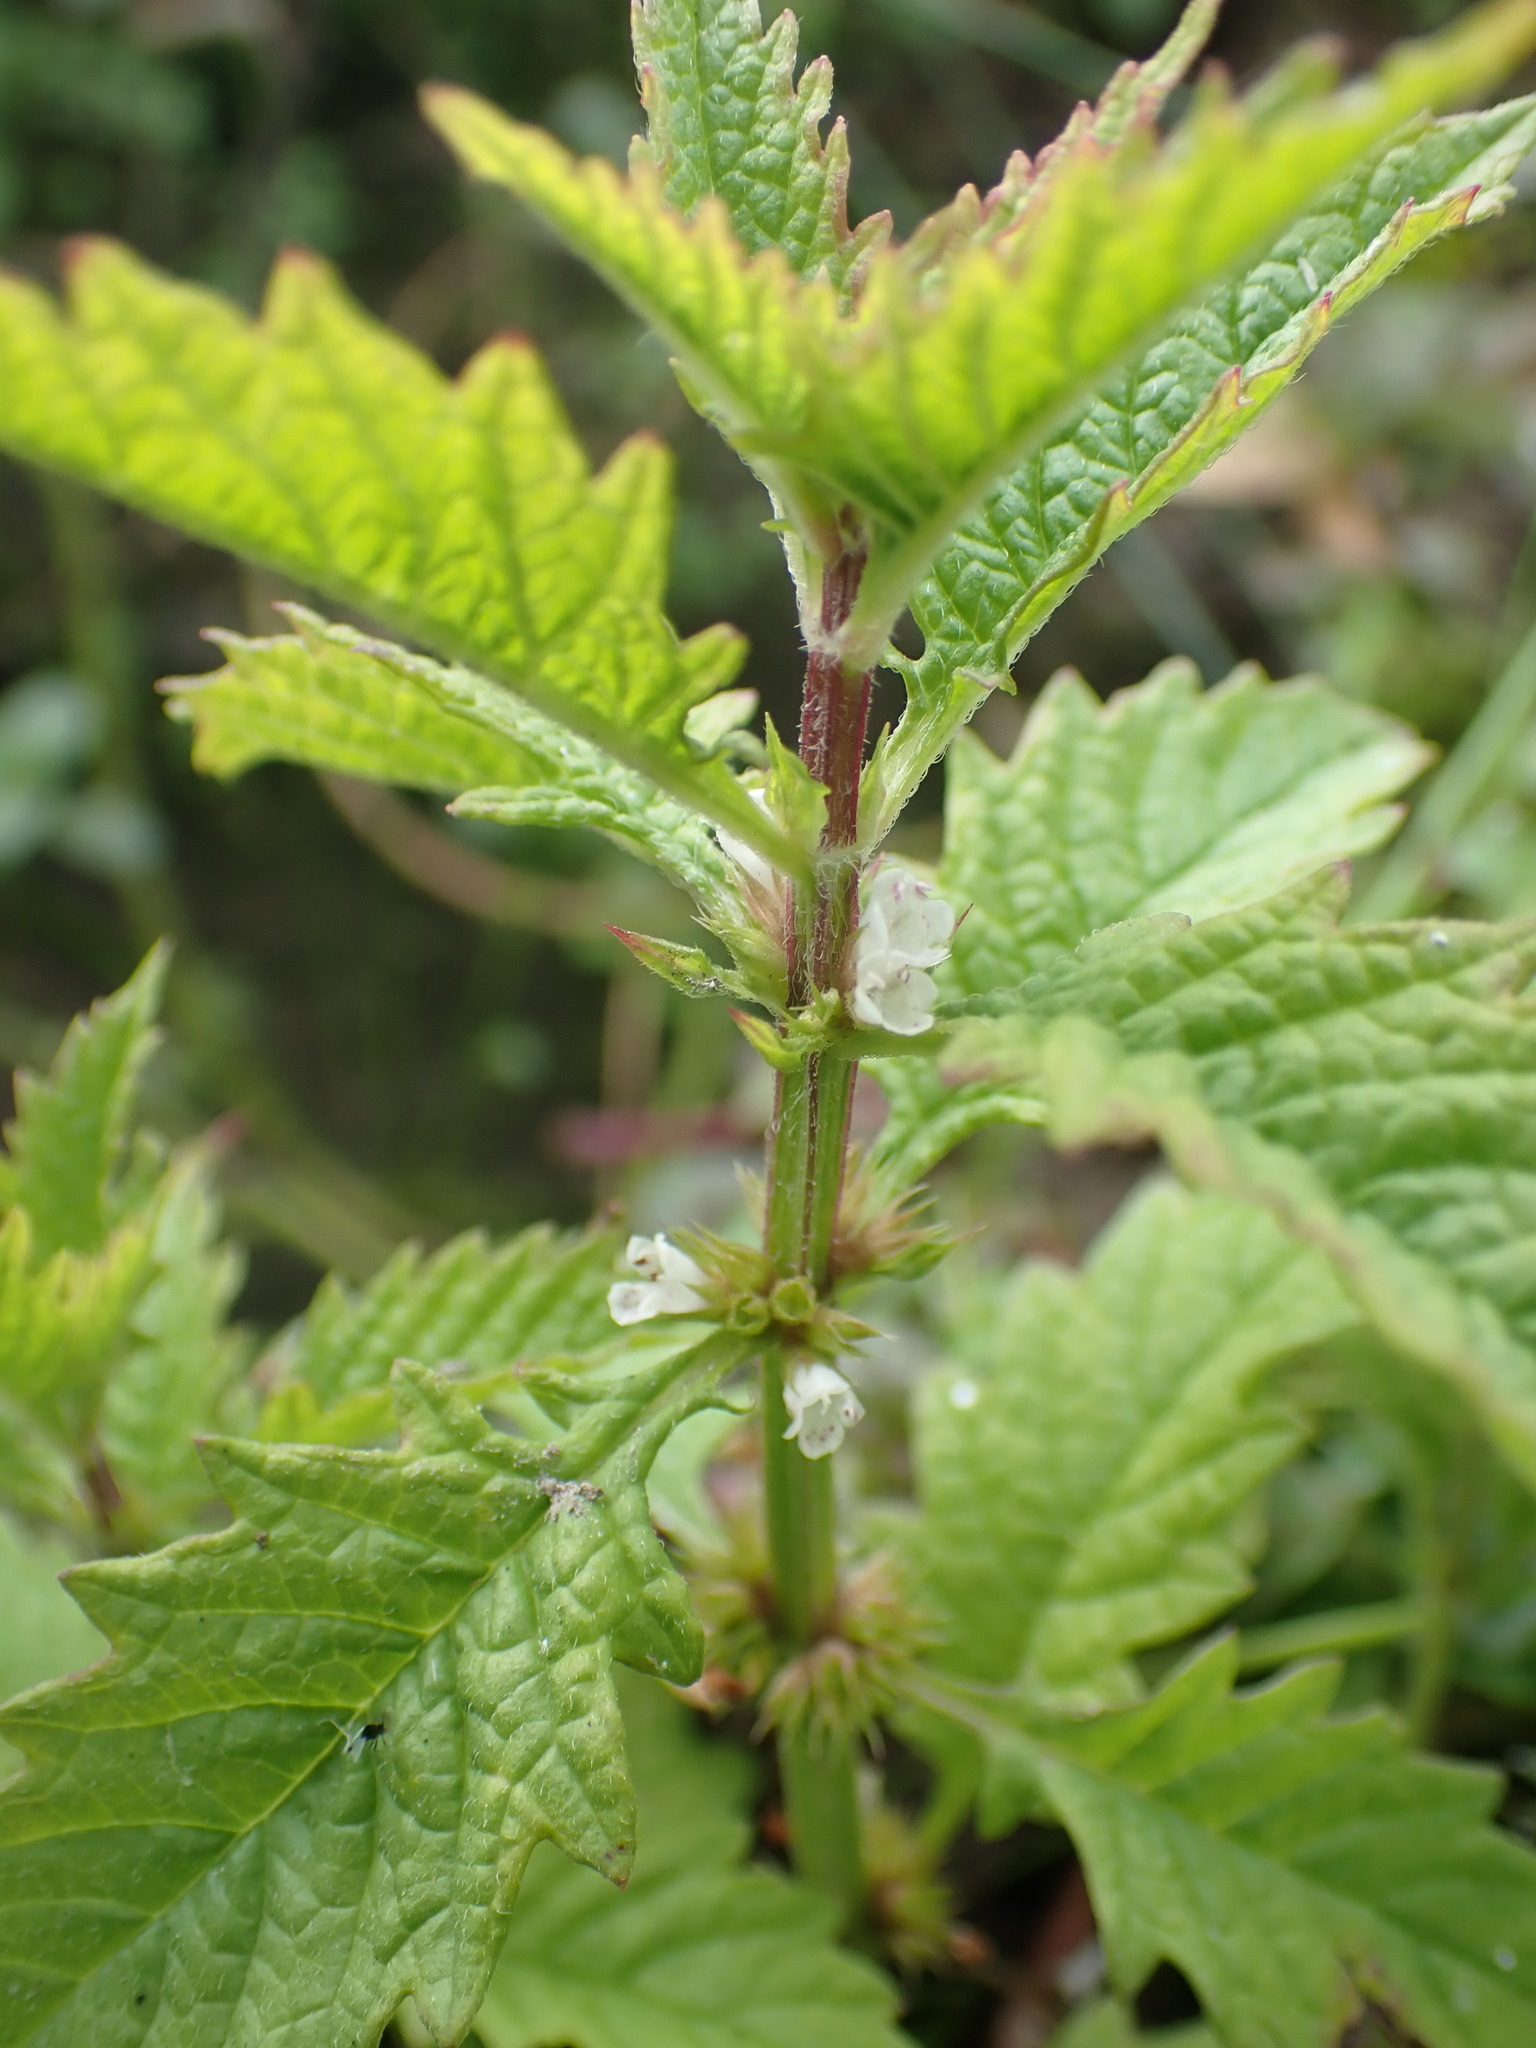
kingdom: Plantae
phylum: Tracheophyta
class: Magnoliopsida
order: Lamiales
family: Lamiaceae
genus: Lycopus
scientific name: Lycopus europaeus
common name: European bugleweed
